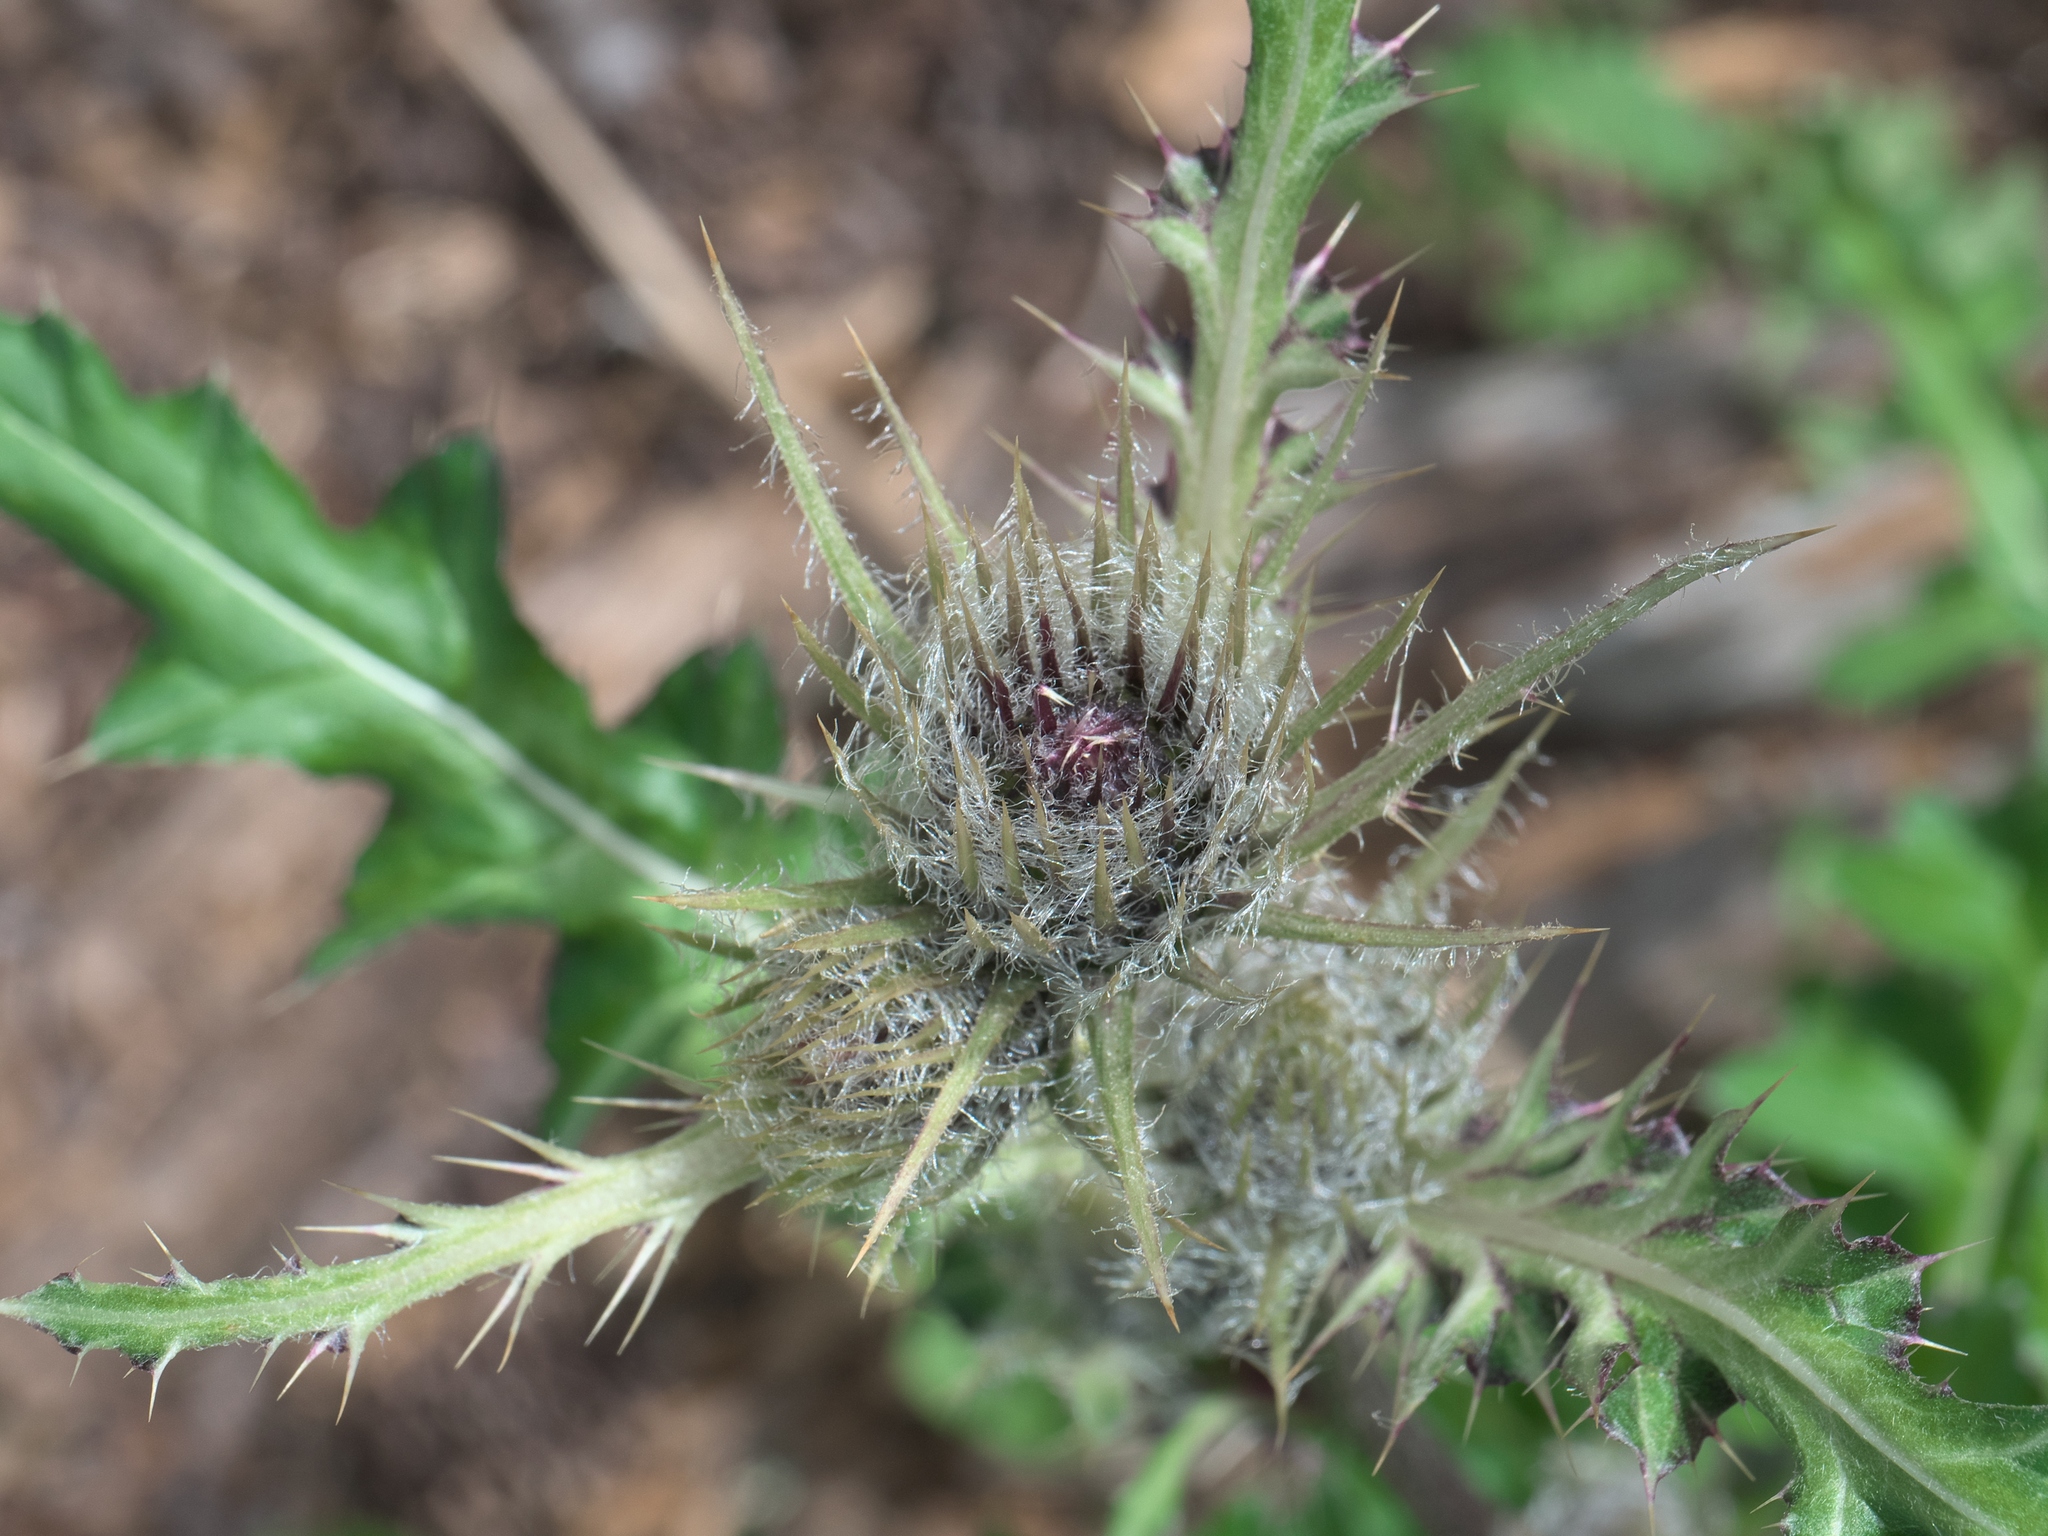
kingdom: Plantae
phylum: Tracheophyta
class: Magnoliopsida
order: Asterales
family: Asteraceae
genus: Cirsium
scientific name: Cirsium griseum
